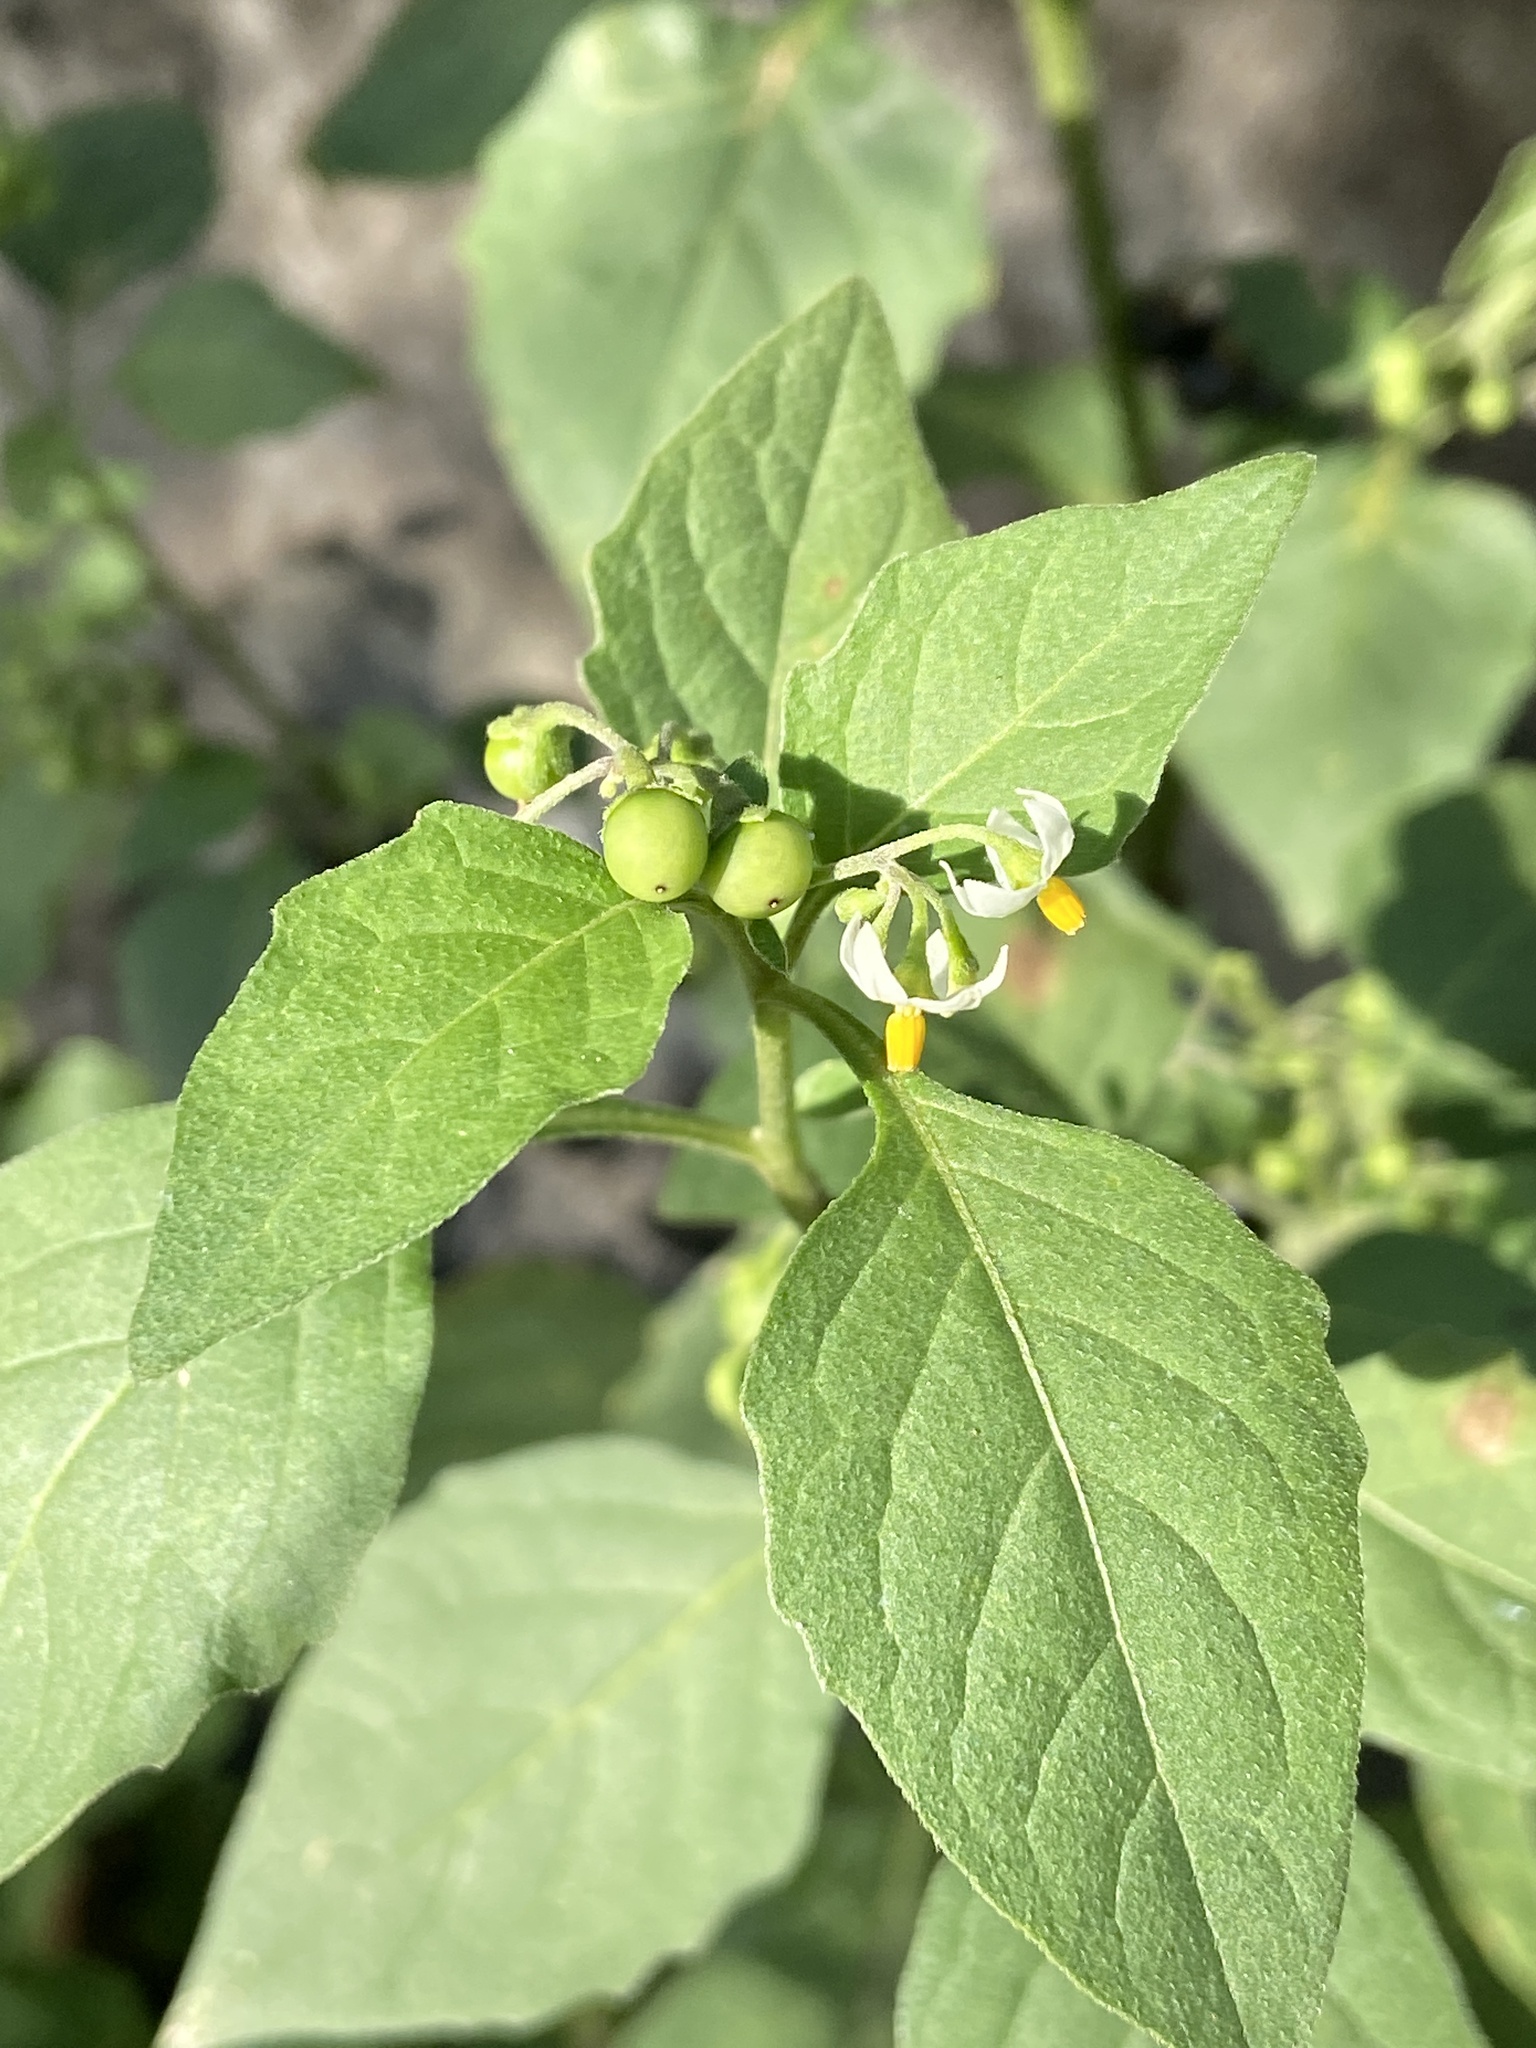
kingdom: Plantae
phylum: Tracheophyta
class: Magnoliopsida
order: Solanales
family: Solanaceae
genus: Solanum
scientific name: Solanum nigrum
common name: Black nightshade
